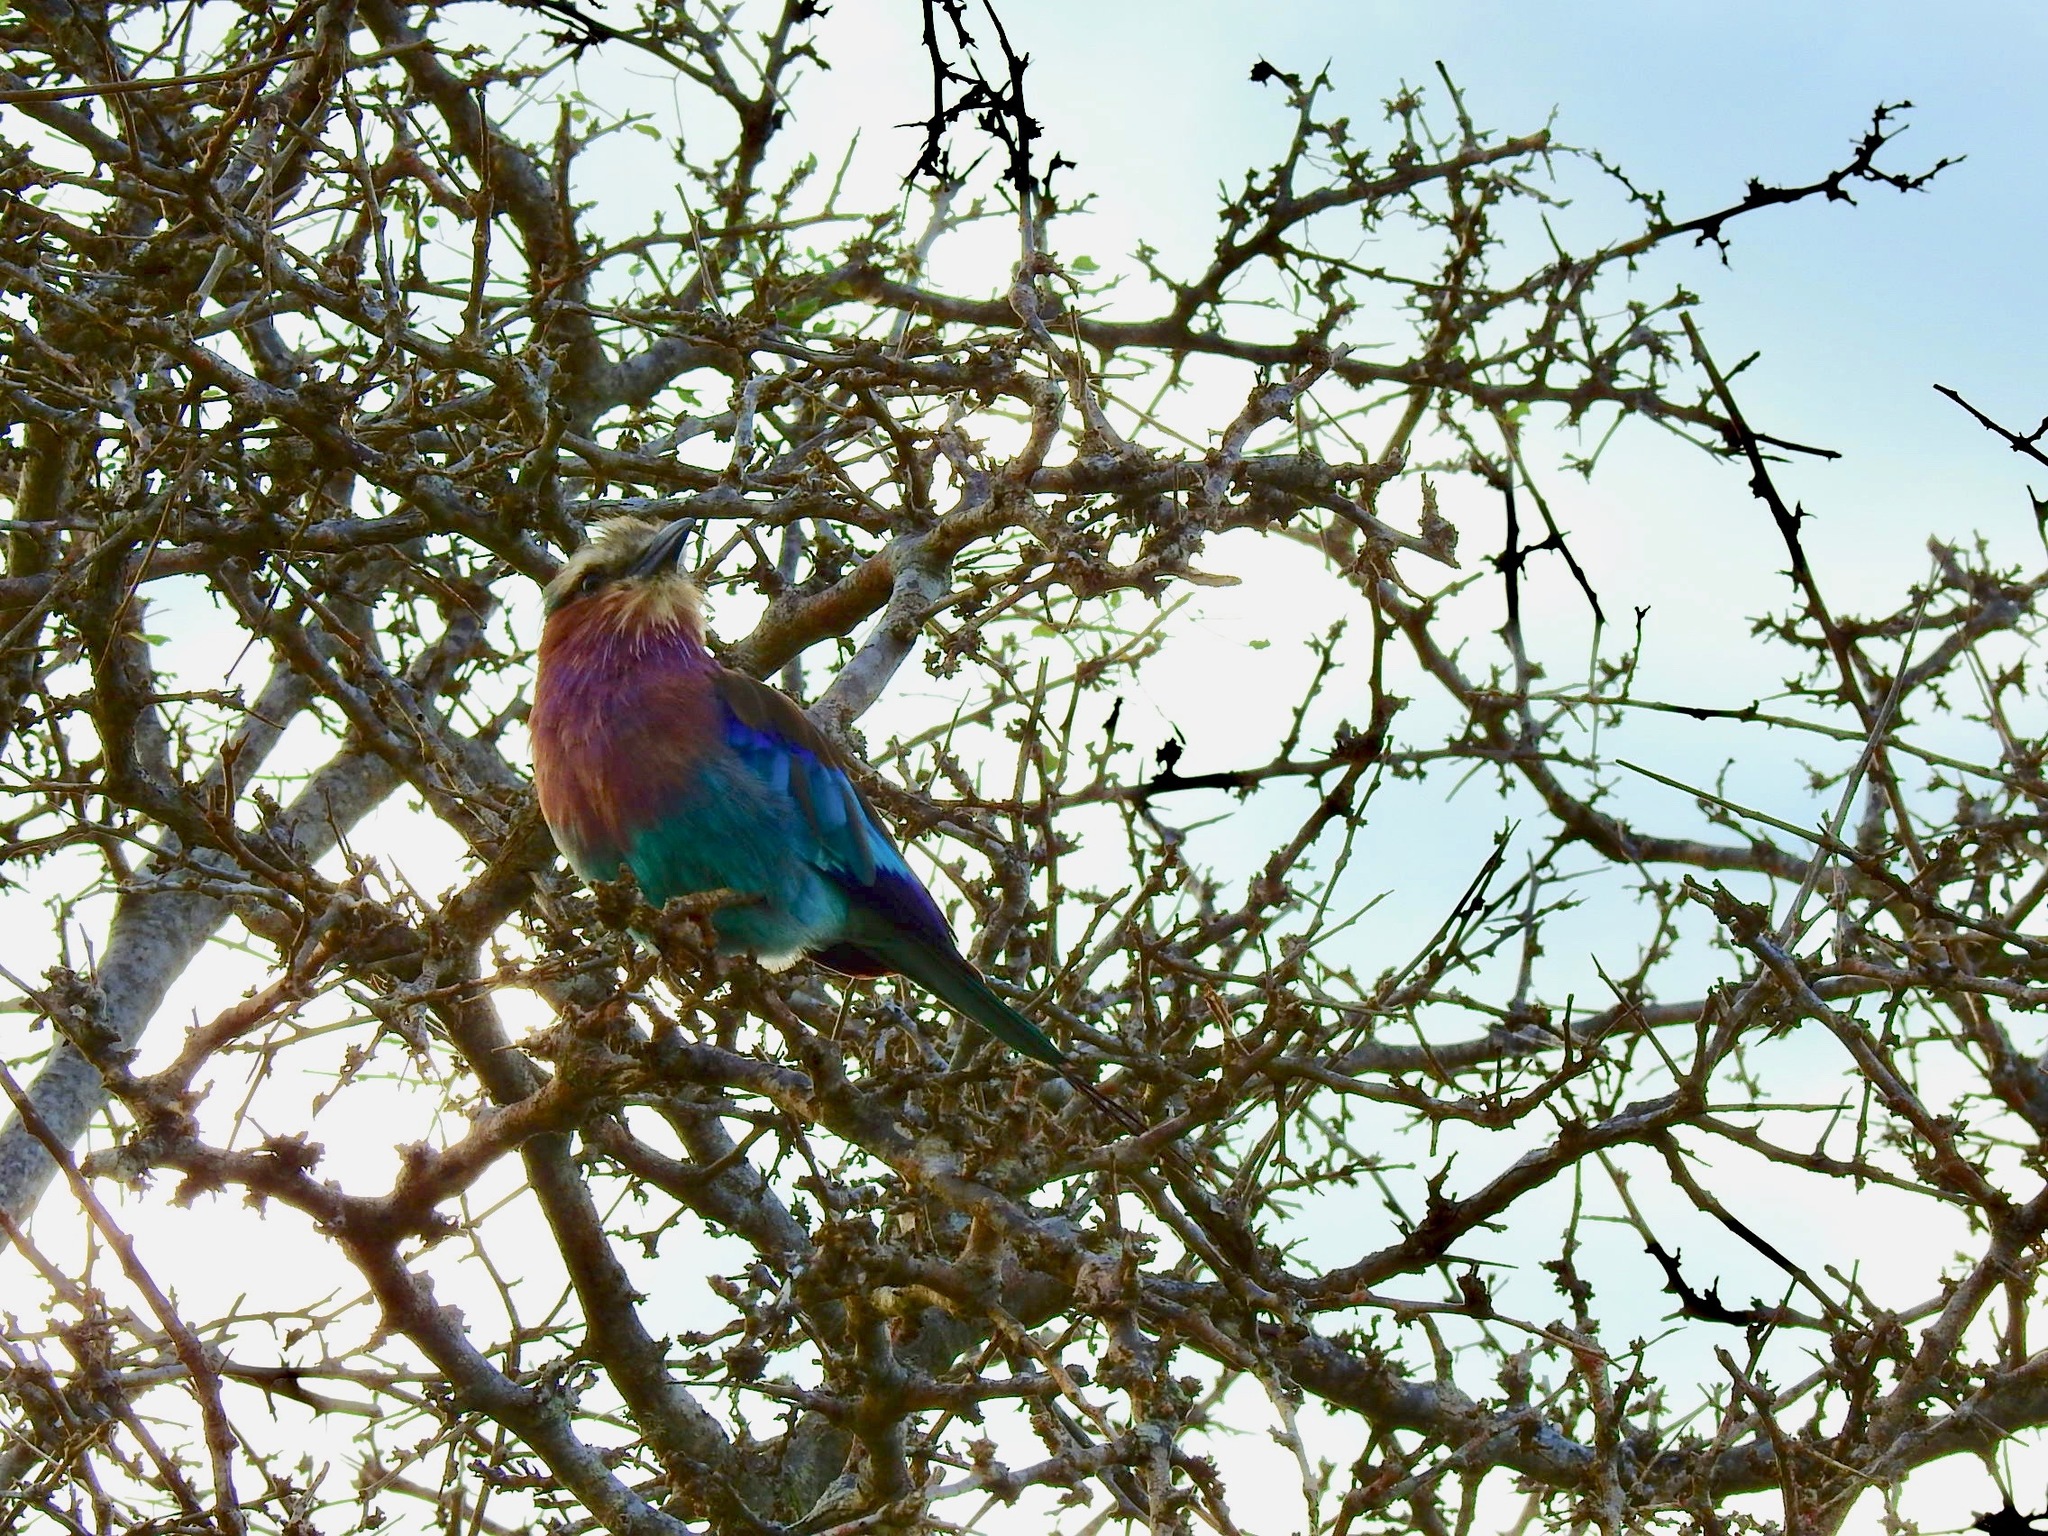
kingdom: Animalia
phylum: Chordata
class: Aves
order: Coraciiformes
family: Coraciidae
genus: Coracias
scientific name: Coracias caudatus
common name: Lilac-breasted roller
